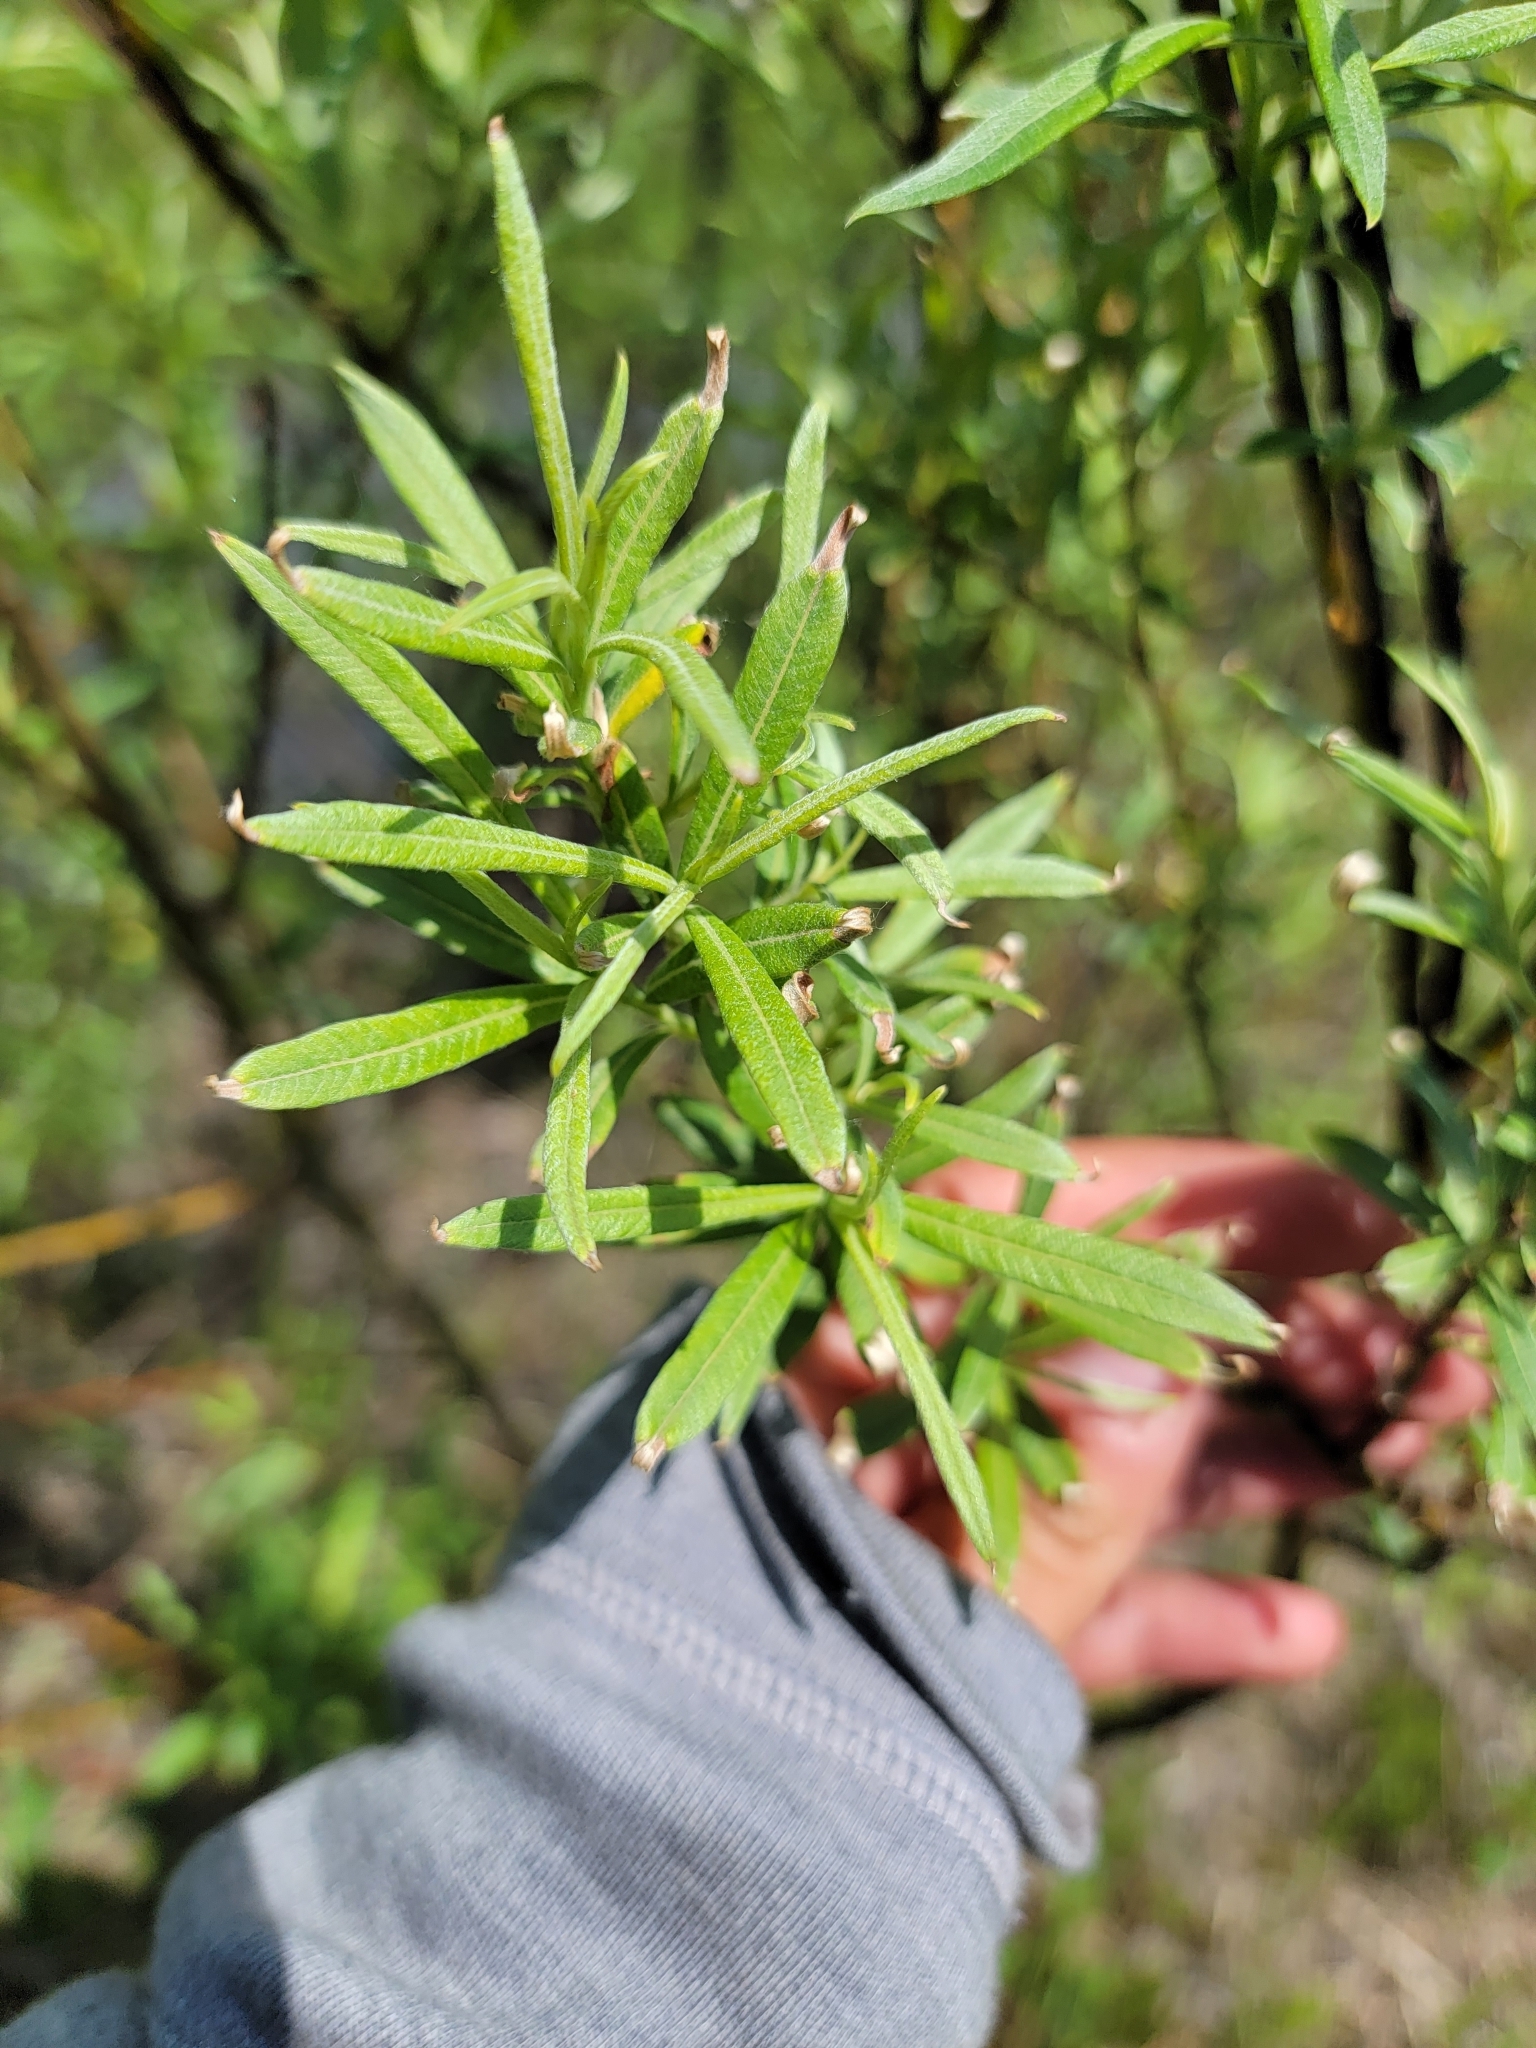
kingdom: Plantae
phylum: Tracheophyta
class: Magnoliopsida
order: Malpighiales
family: Salicaceae
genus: Salix
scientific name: Salix candida
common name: Hoary willow
